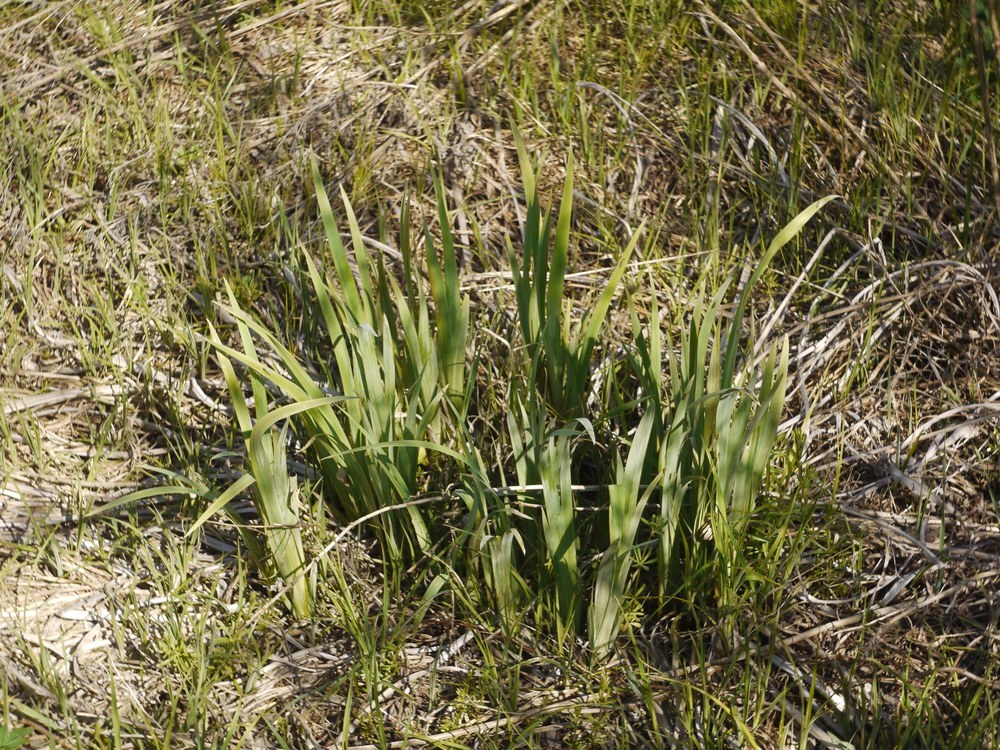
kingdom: Plantae
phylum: Tracheophyta
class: Liliopsida
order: Asparagales
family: Iridaceae
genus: Iris
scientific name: Iris pseudacorus
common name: Yellow flag
